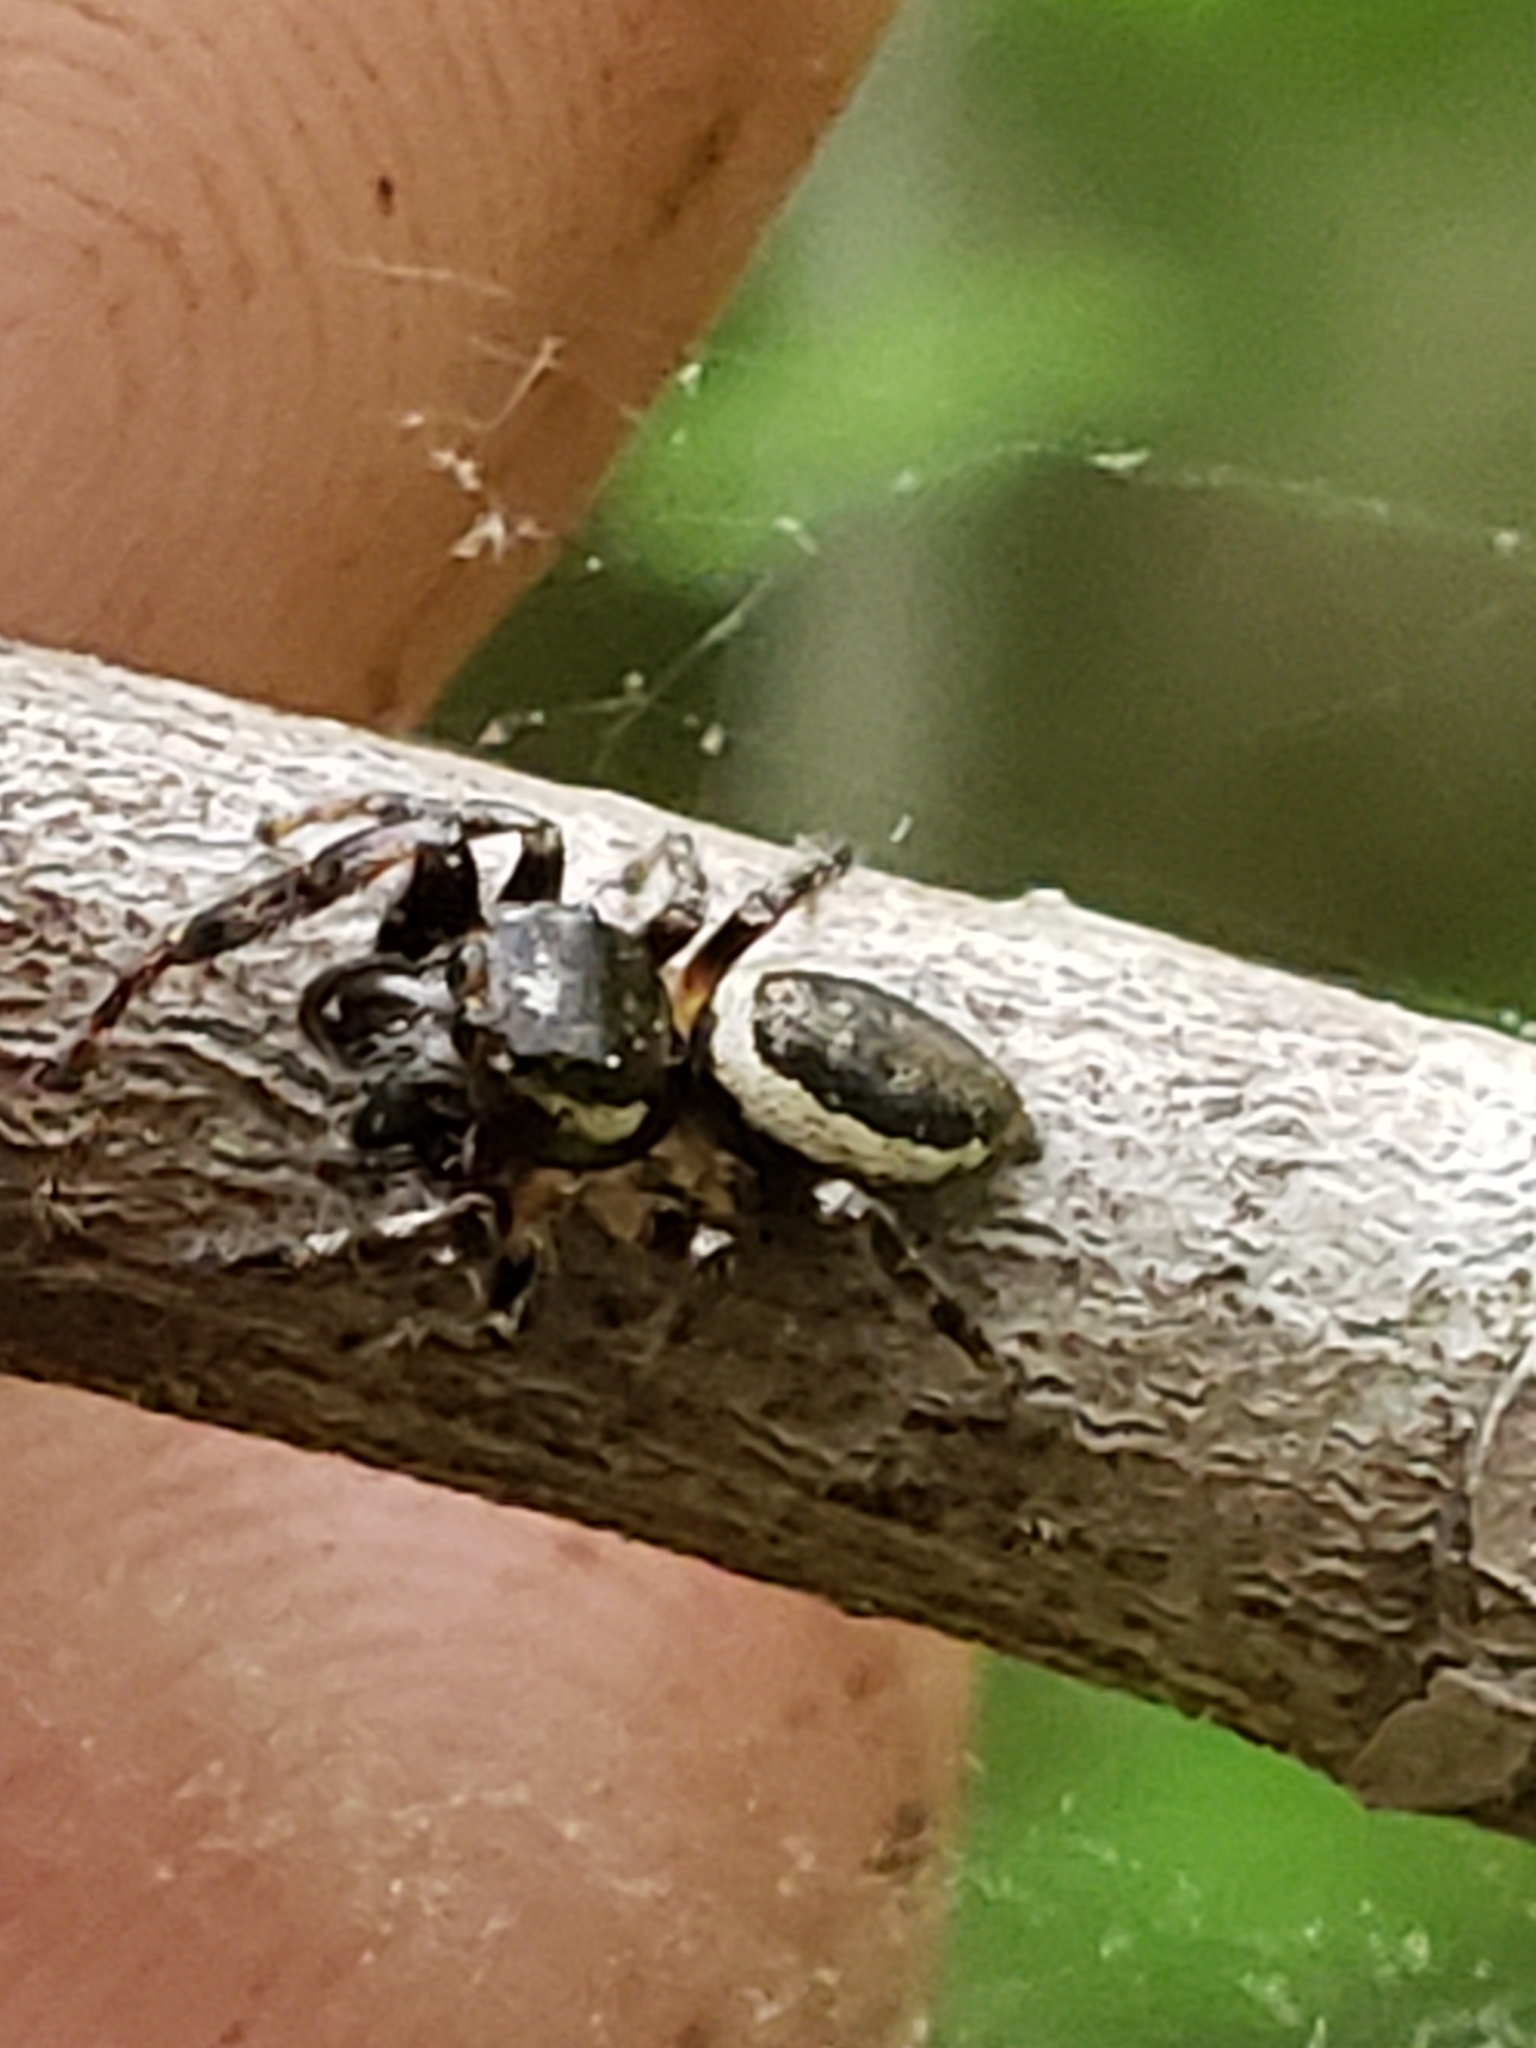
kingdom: Animalia
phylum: Arthropoda
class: Arachnida
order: Araneae
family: Salticidae
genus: Eris
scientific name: Eris militaris
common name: Bronze jumper
